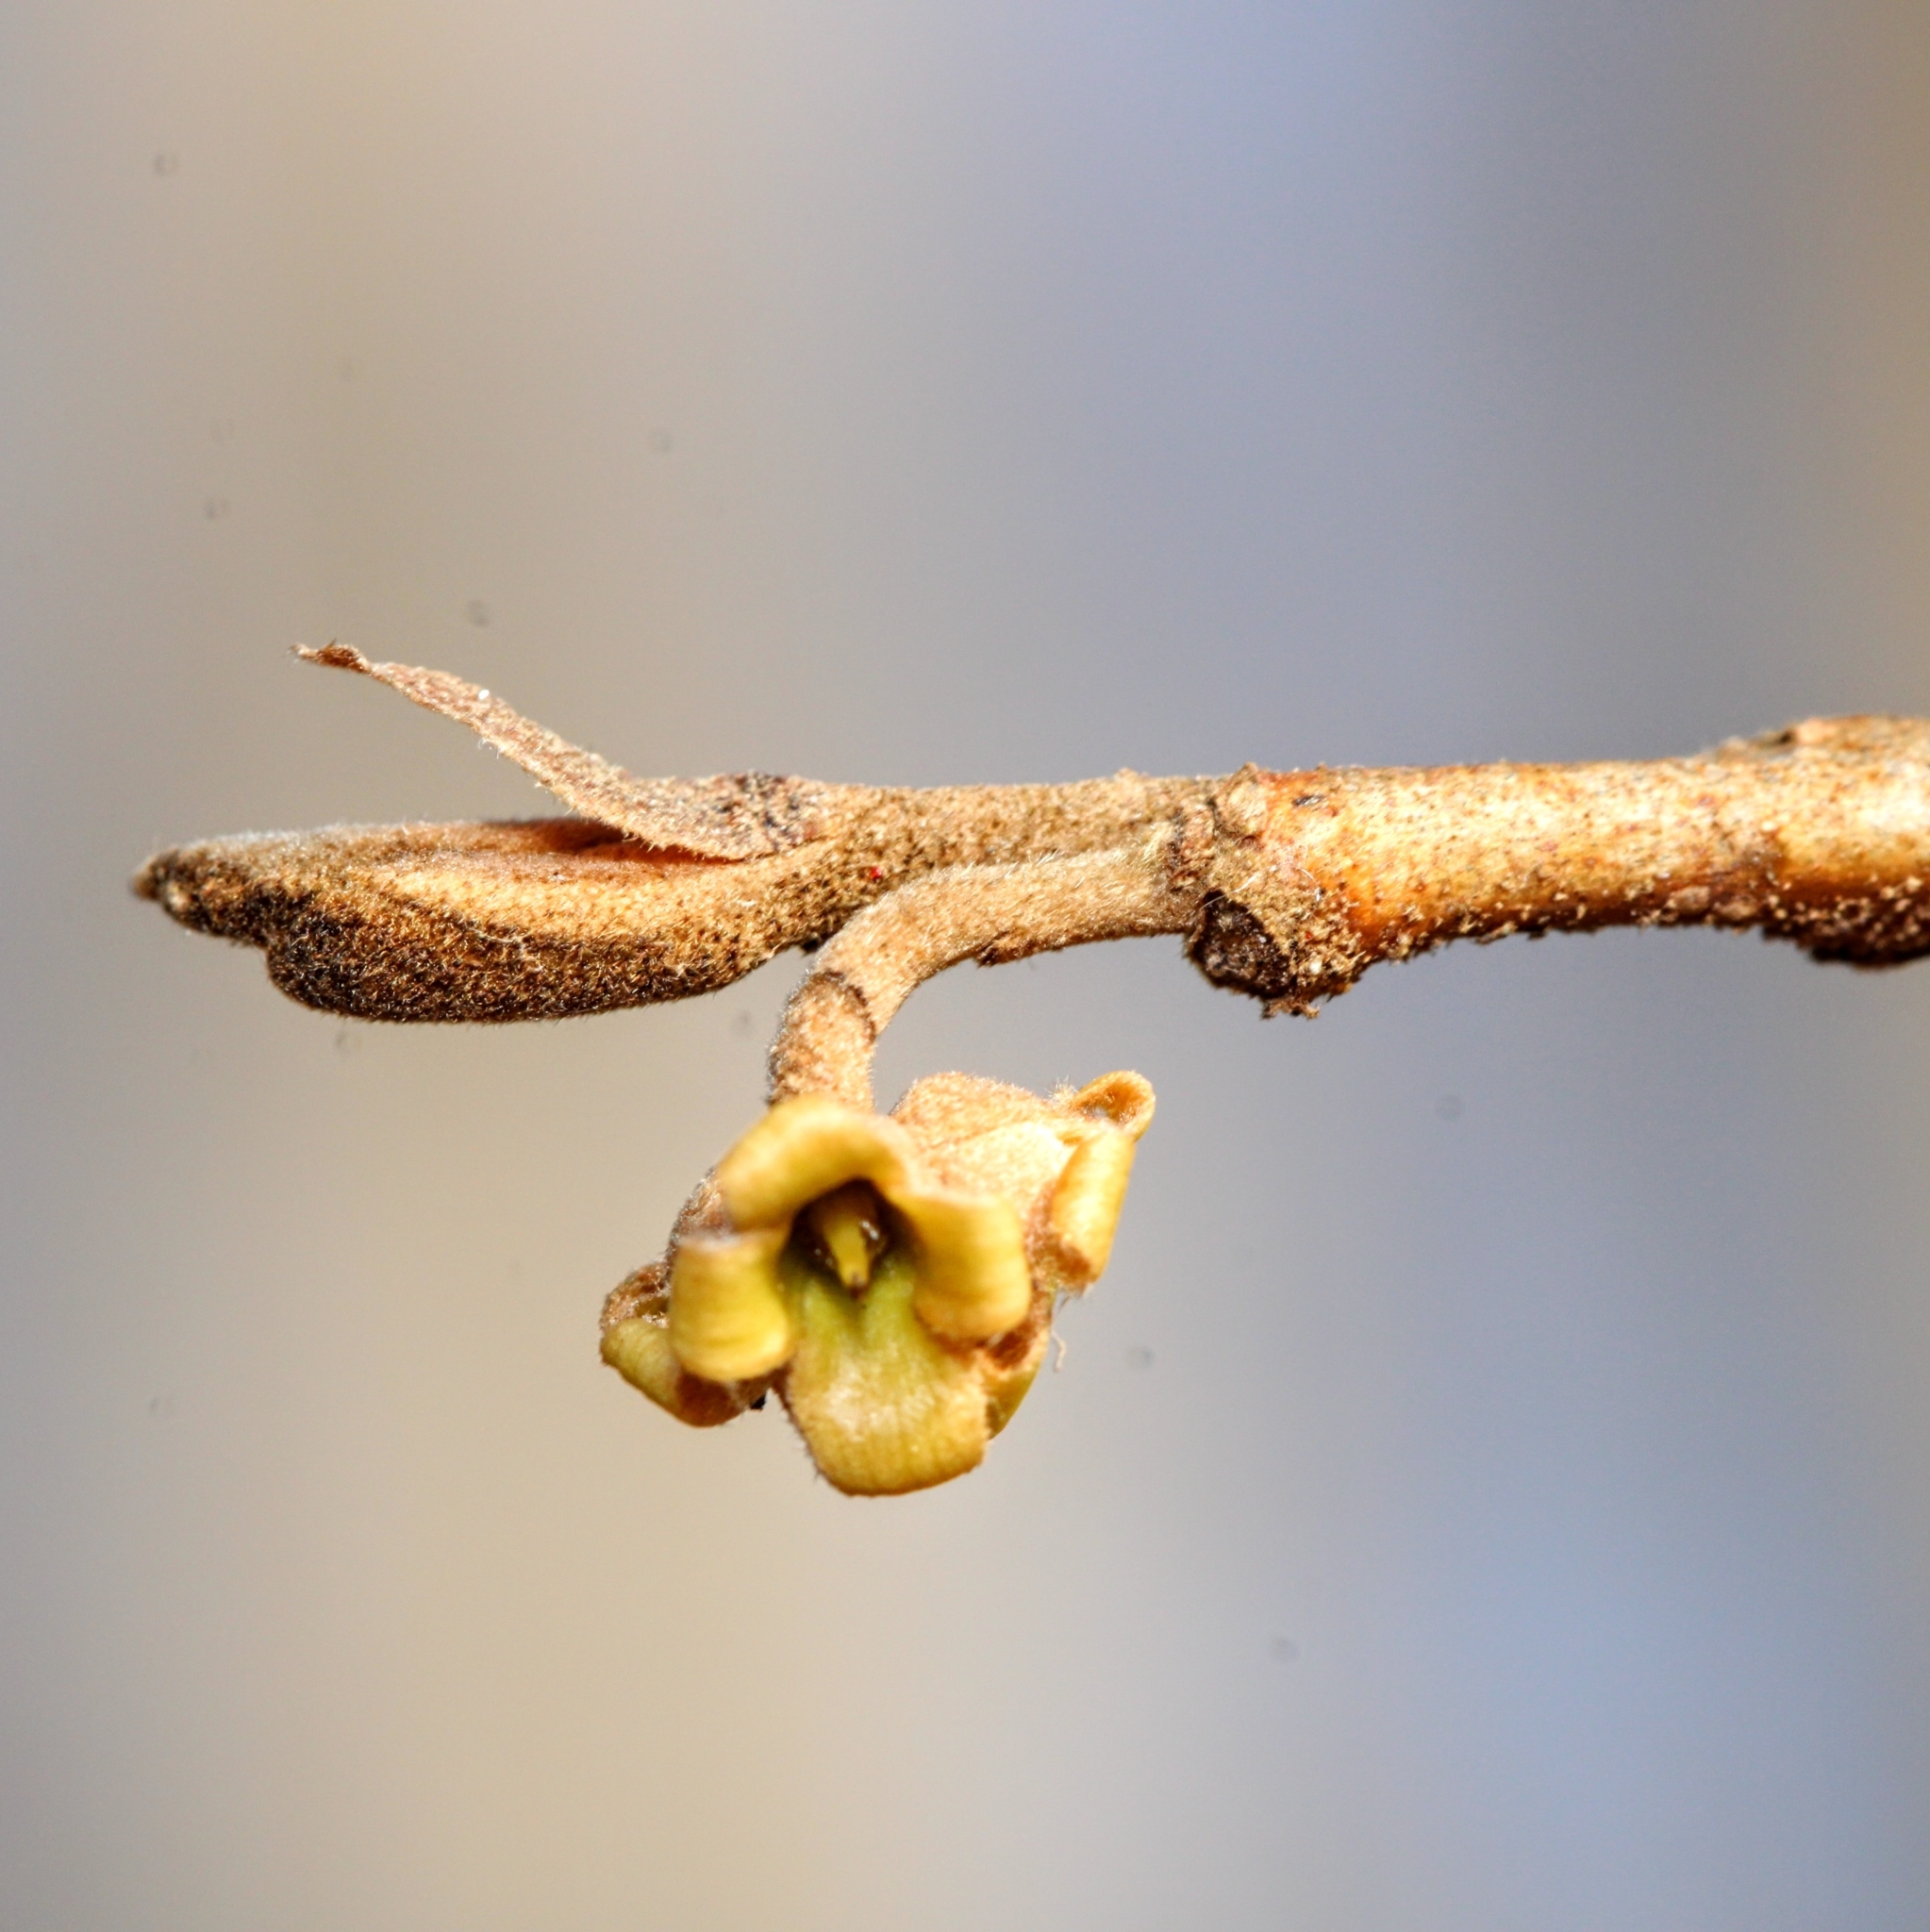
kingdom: Plantae
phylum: Tracheophyta
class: Magnoliopsida
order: Saxifragales
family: Hamamelidaceae
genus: Hamamelis
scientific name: Hamamelis virginiana
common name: Witch-hazel
